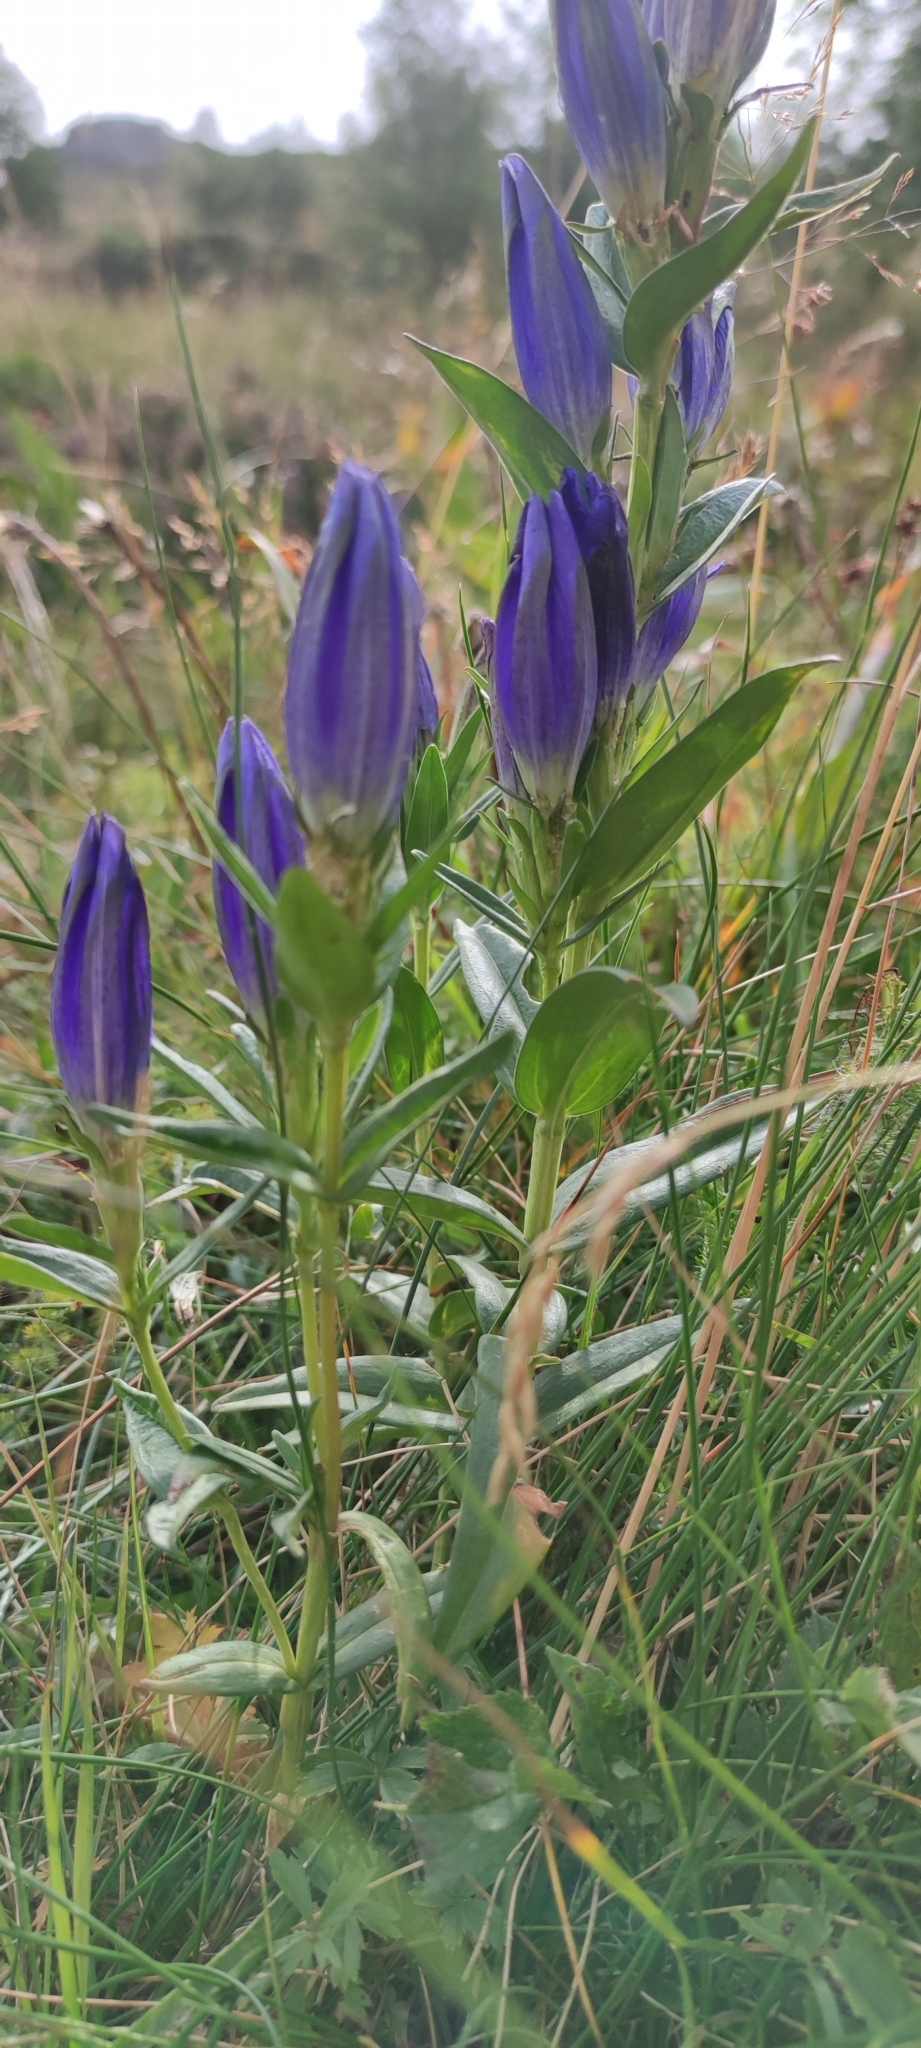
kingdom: Plantae
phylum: Tracheophyta
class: Magnoliopsida
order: Gentianales
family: Gentianaceae
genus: Gentiana
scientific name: Gentiana pneumonanthe
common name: Marsh gentian
